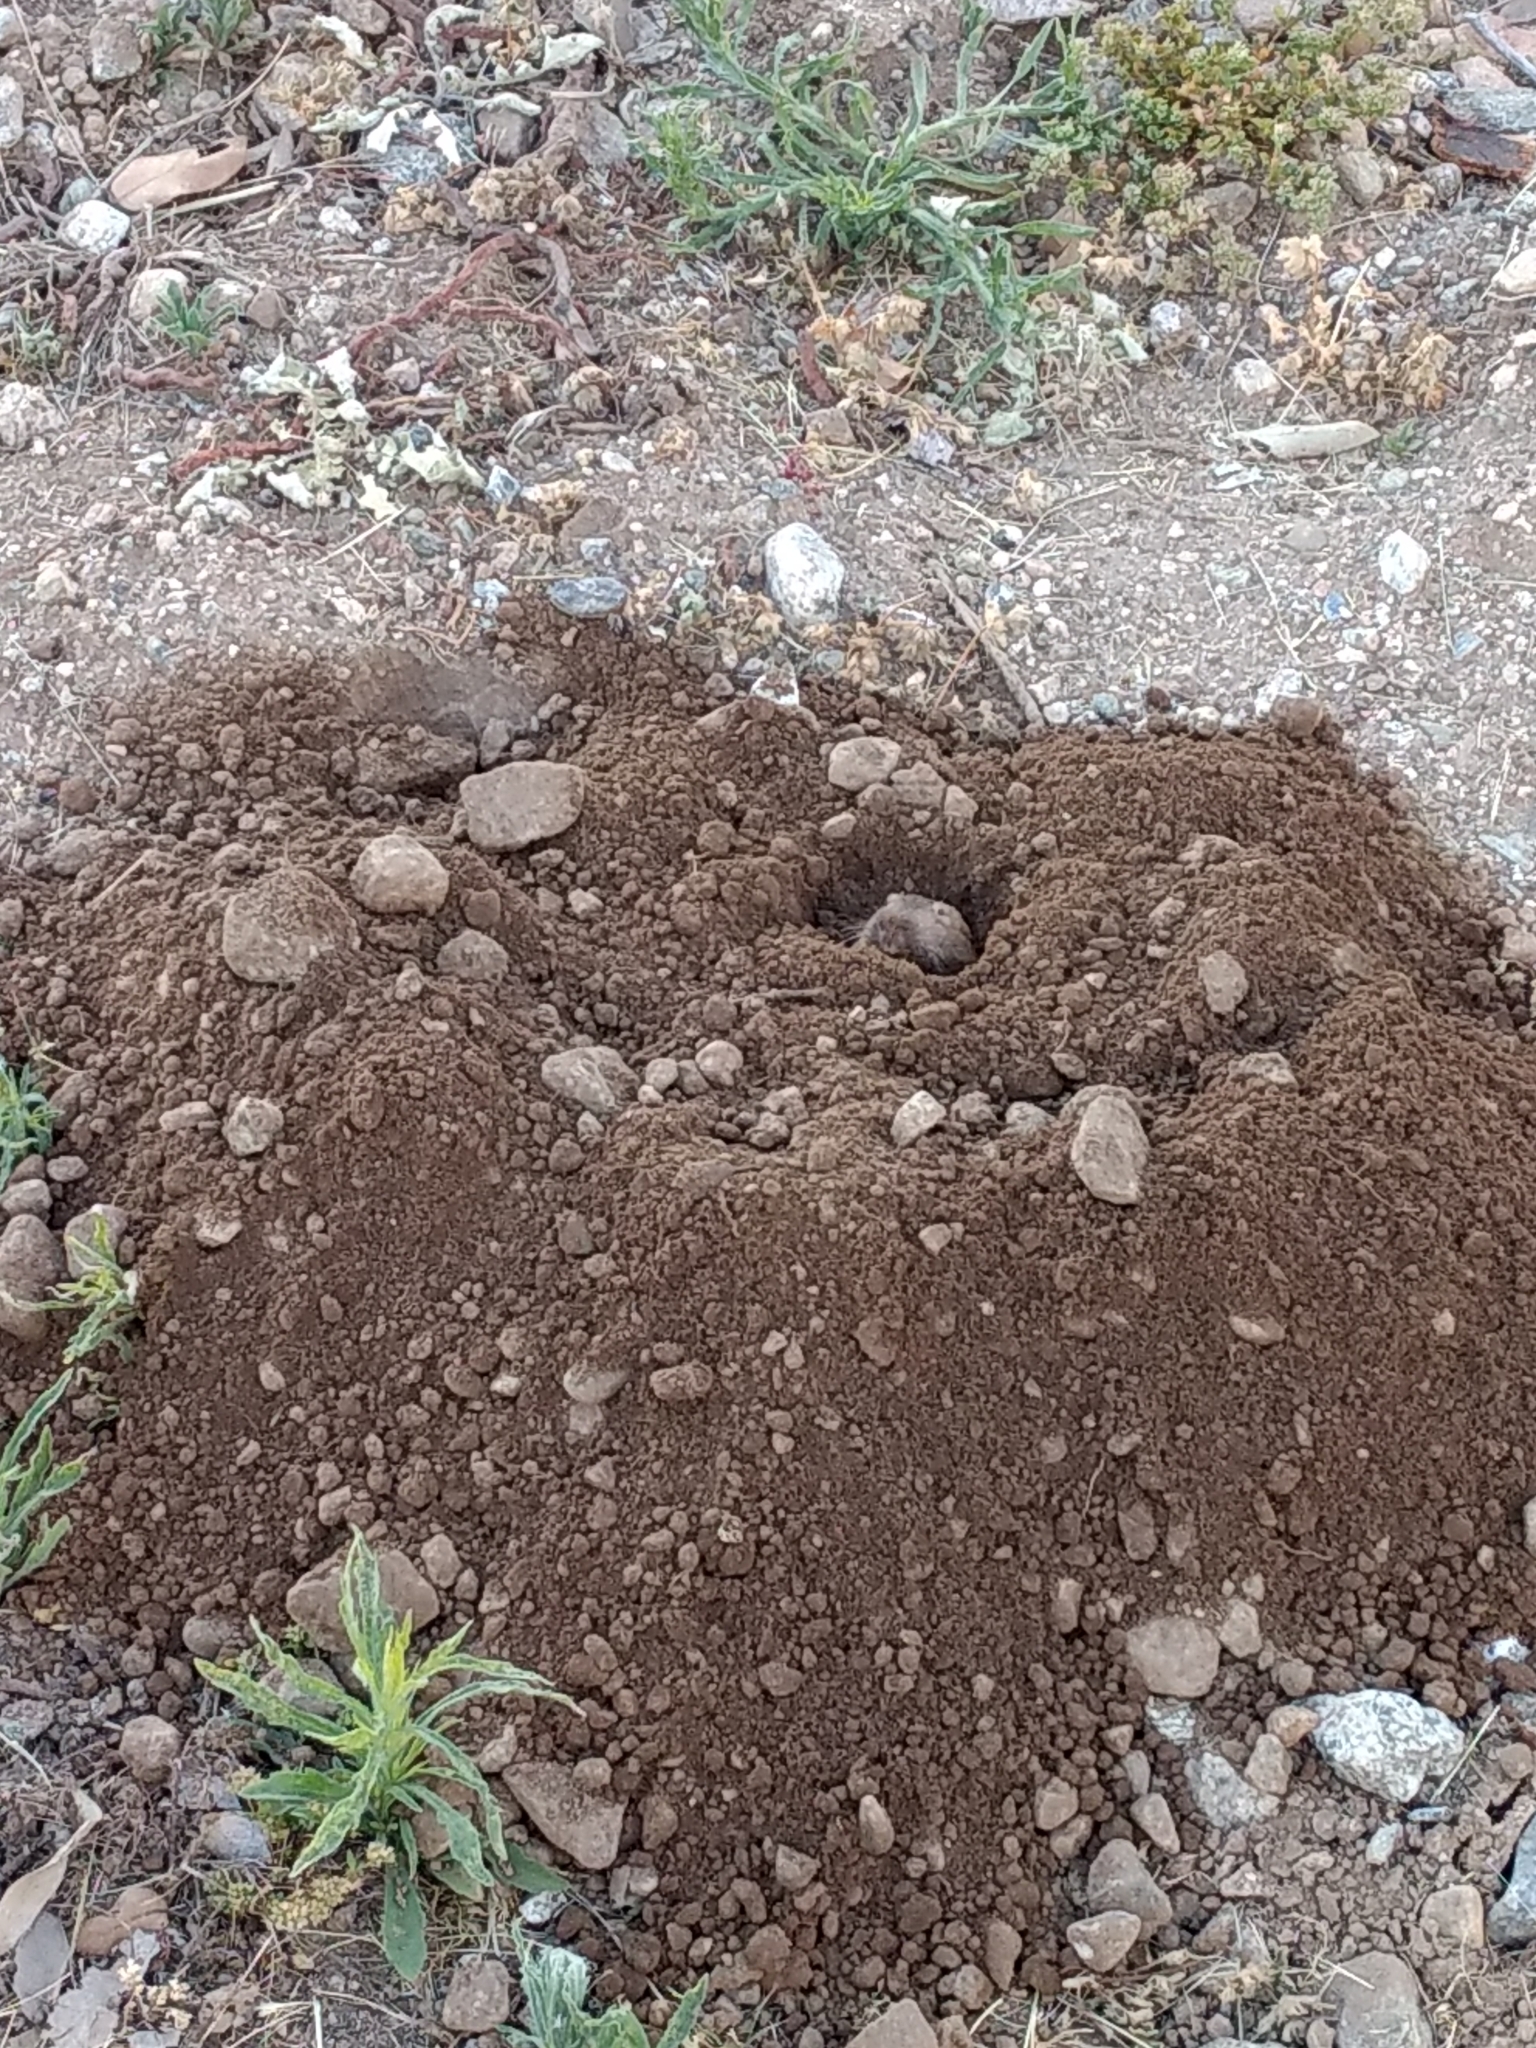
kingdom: Animalia
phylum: Chordata
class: Mammalia
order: Rodentia
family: Geomyidae
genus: Thomomys
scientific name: Thomomys bottae
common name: Botta's pocket gopher
